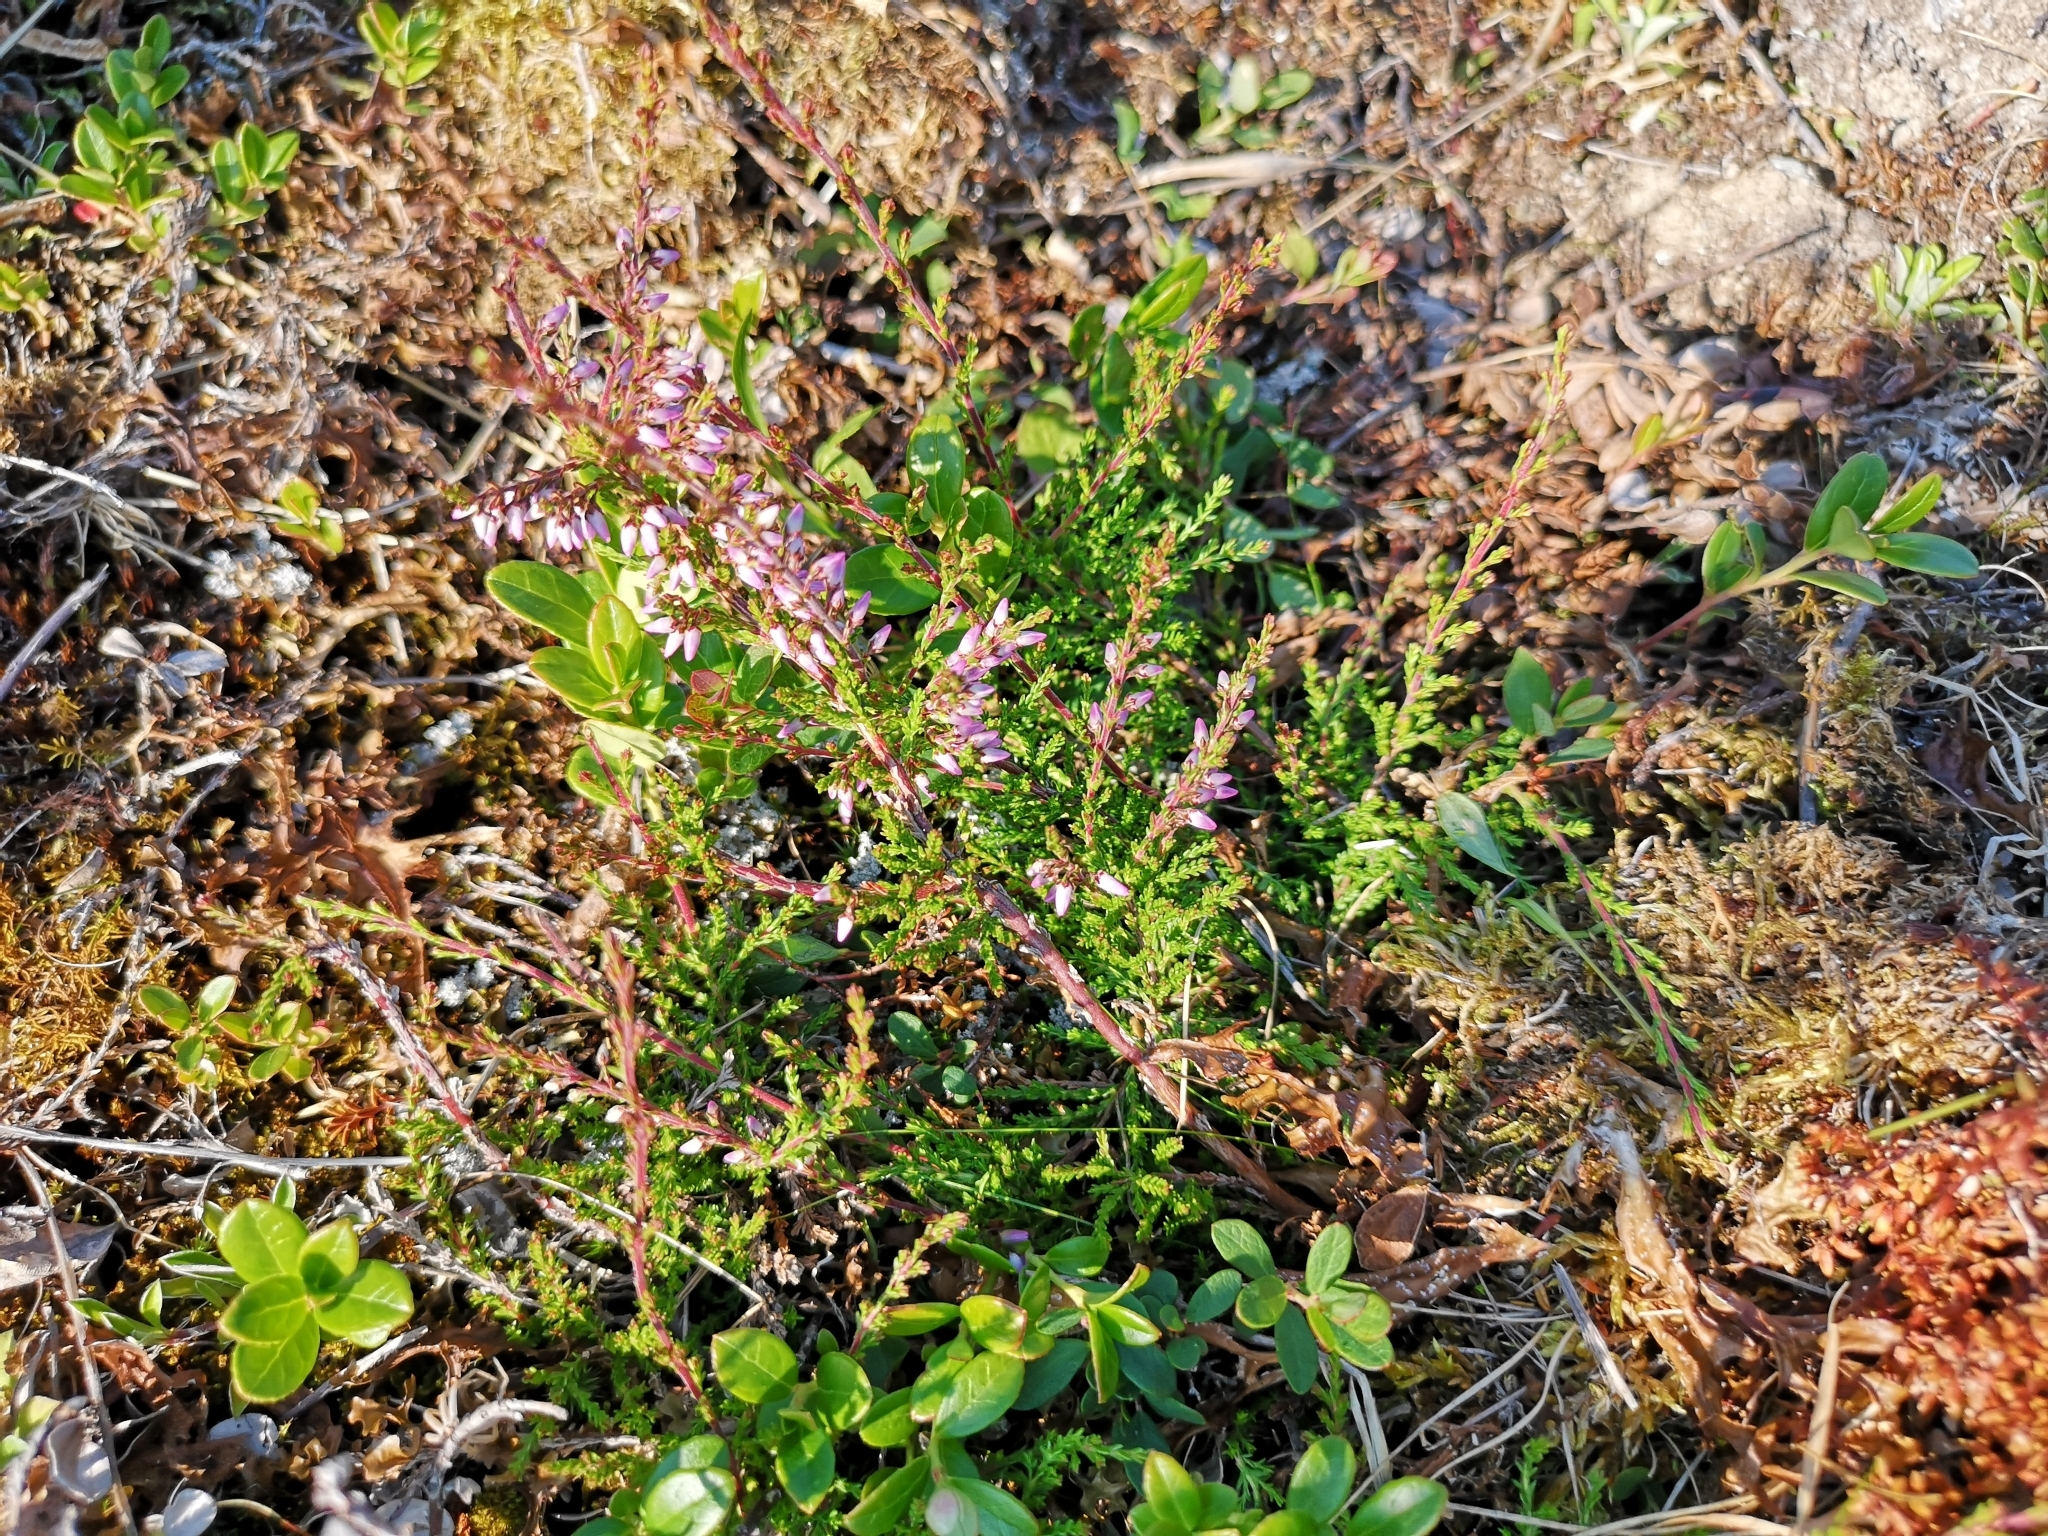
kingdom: Plantae
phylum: Tracheophyta
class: Magnoliopsida
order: Ericales
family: Ericaceae
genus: Calluna
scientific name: Calluna vulgaris
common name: Heather
